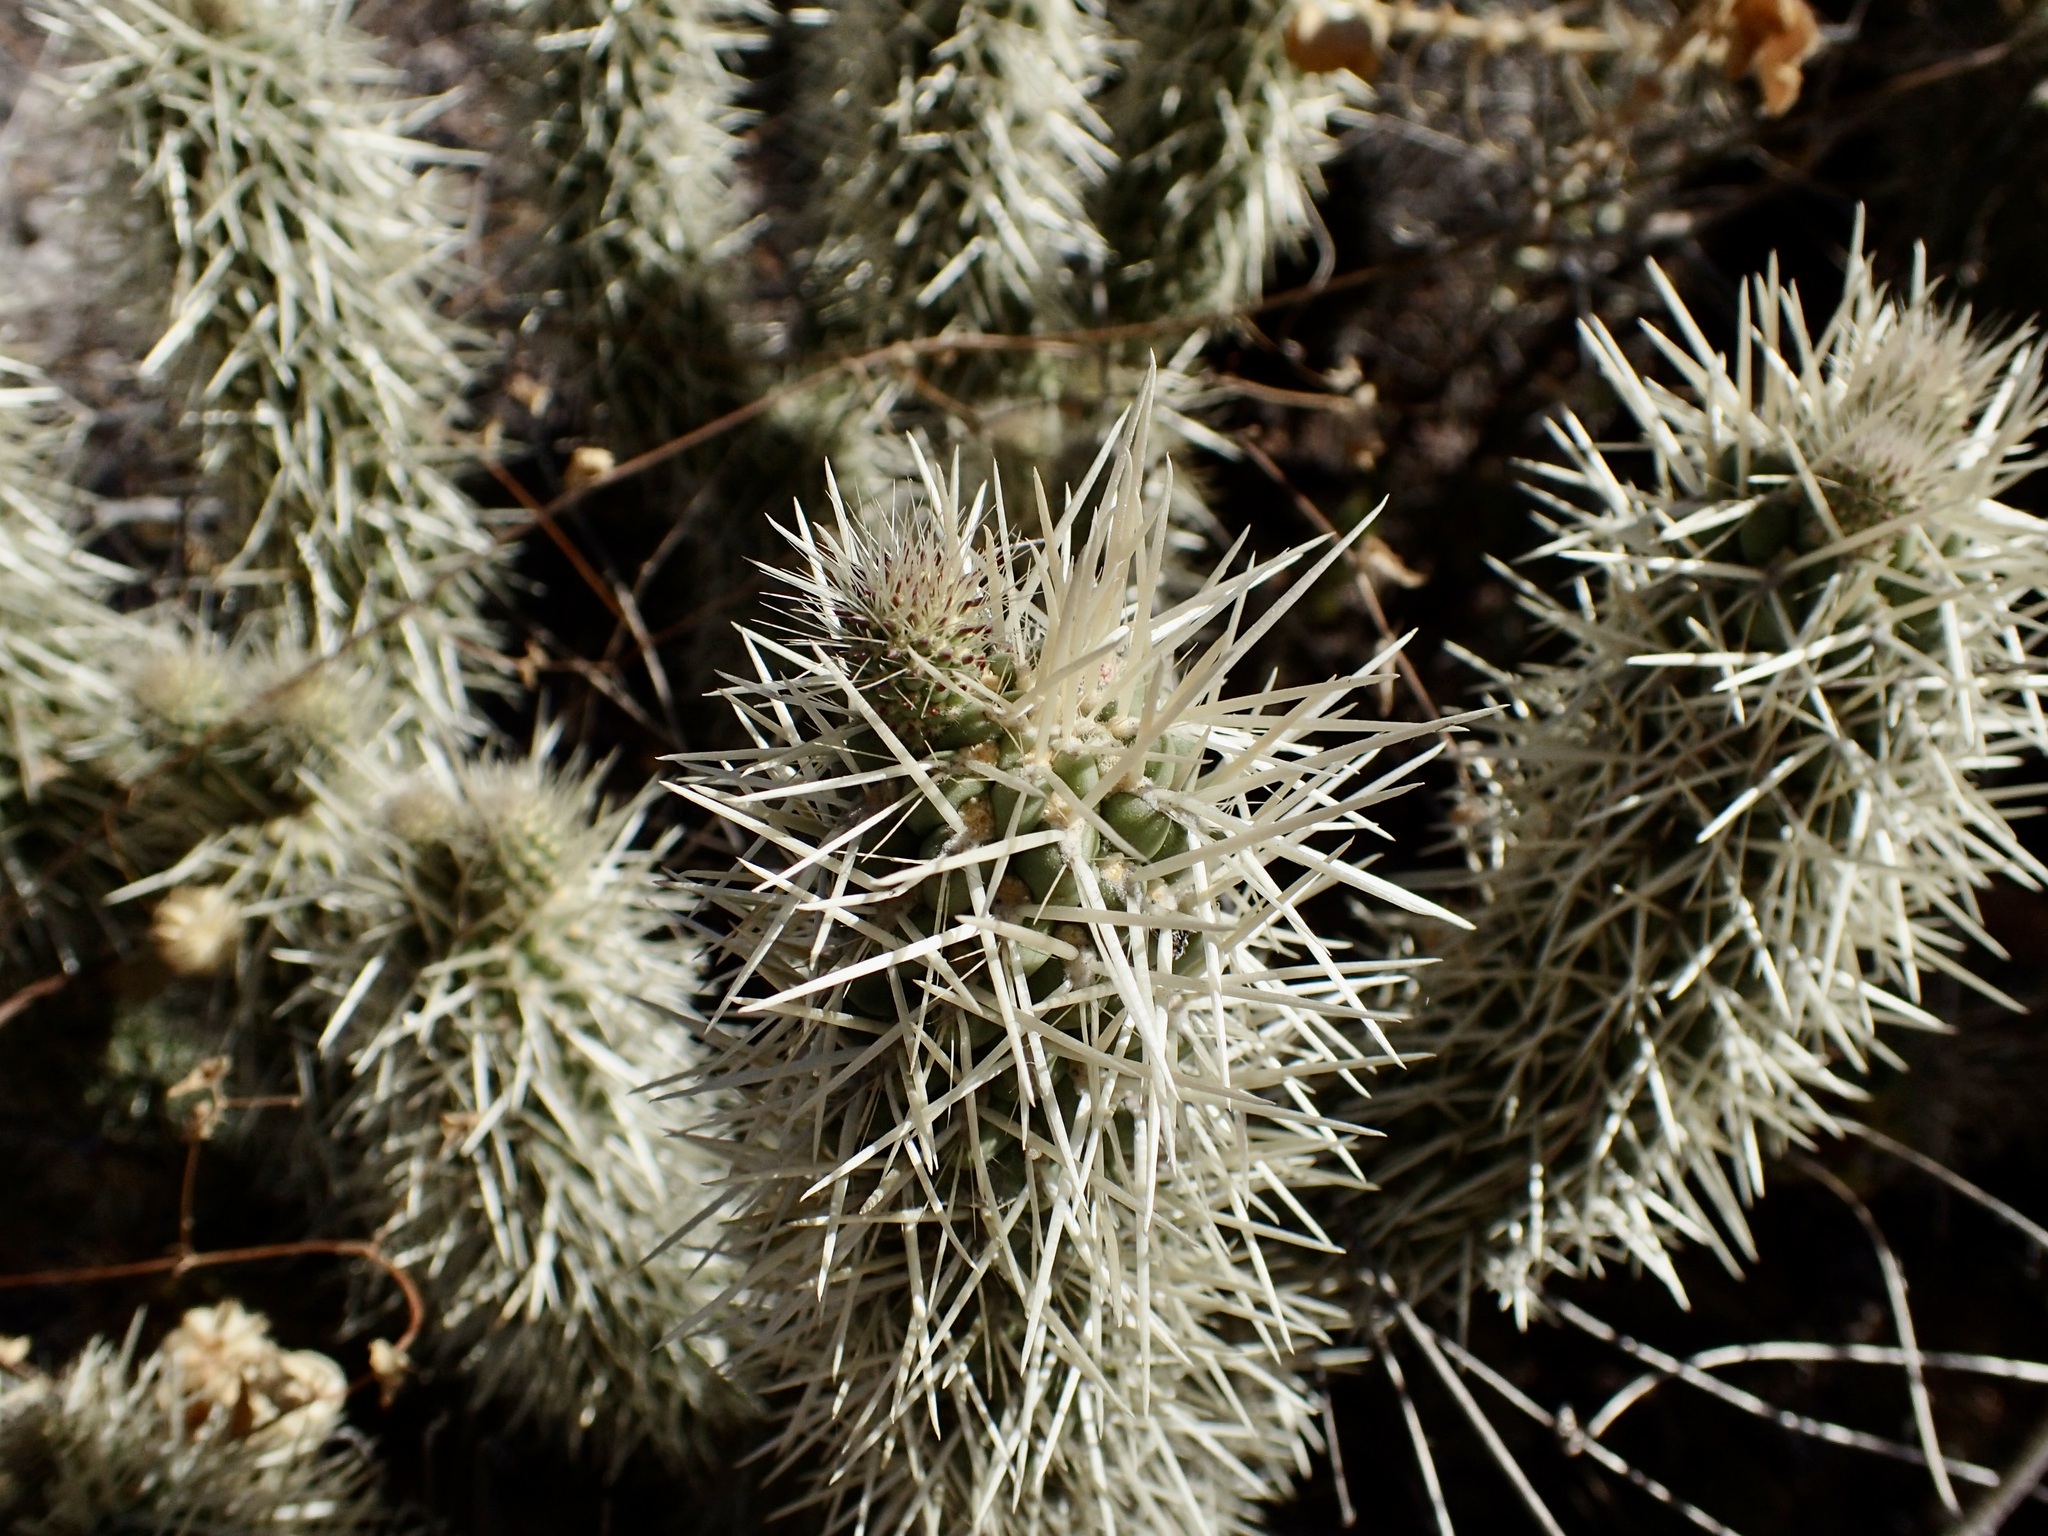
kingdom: Plantae
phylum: Tracheophyta
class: Magnoliopsida
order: Caryophyllales
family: Cactaceae
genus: Cylindropuntia
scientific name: Cylindropuntia bigelowii
